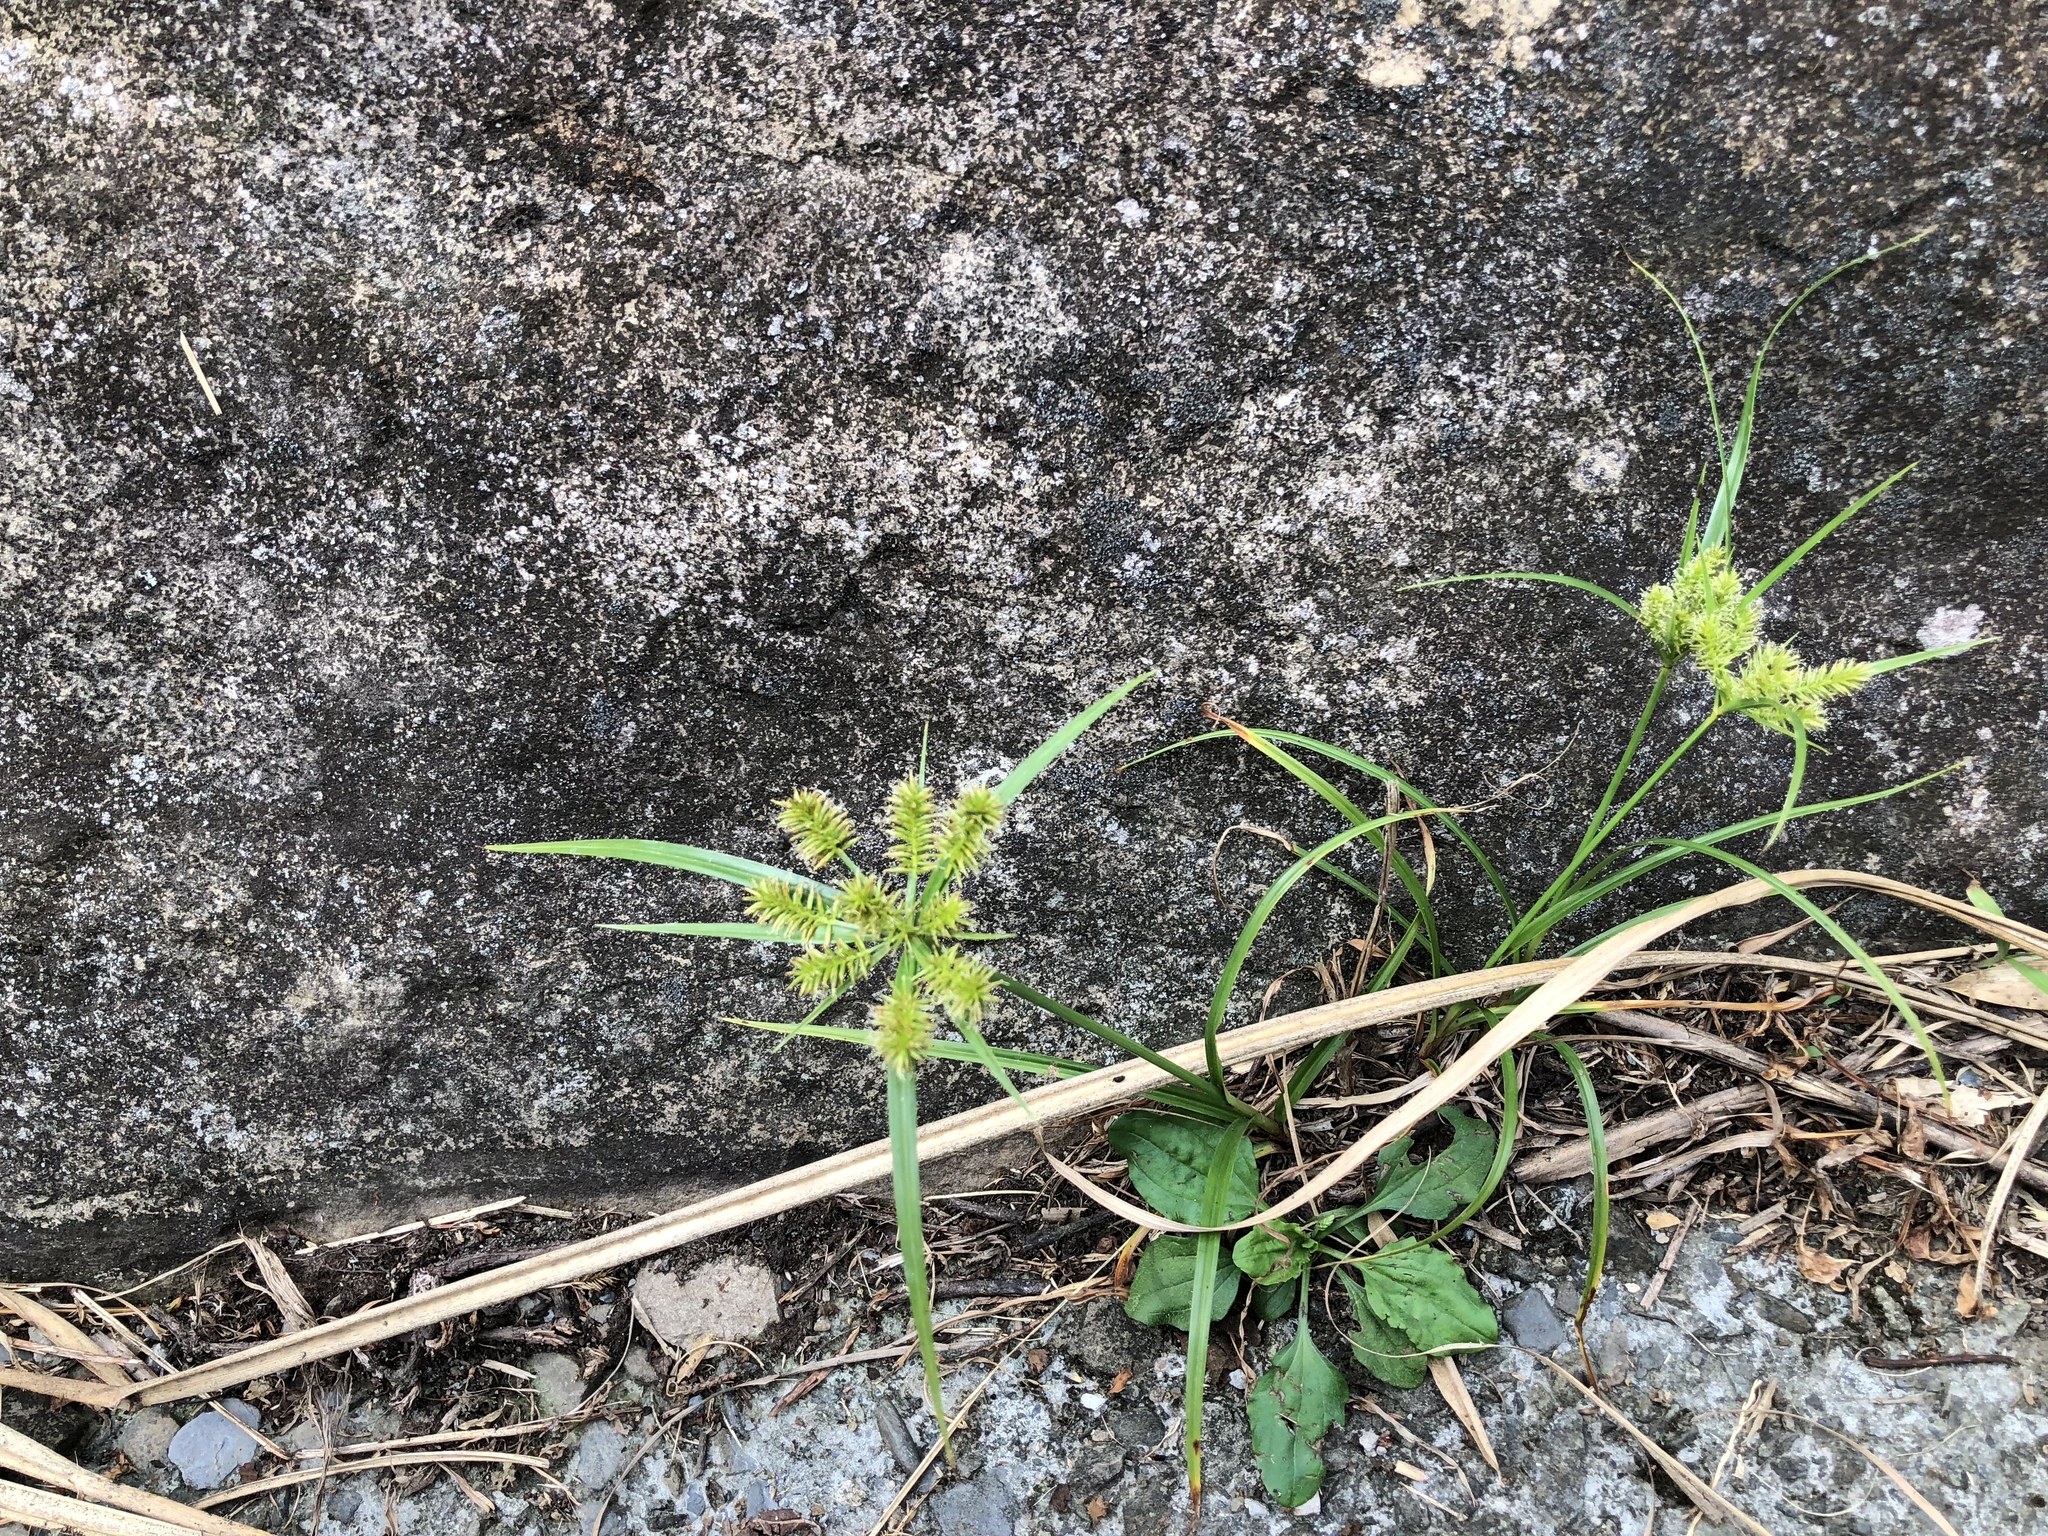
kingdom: Plantae
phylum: Tracheophyta
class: Liliopsida
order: Poales
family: Cyperaceae
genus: Cyperus
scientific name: Cyperus cyperoides
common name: Pacific island flat sedge
